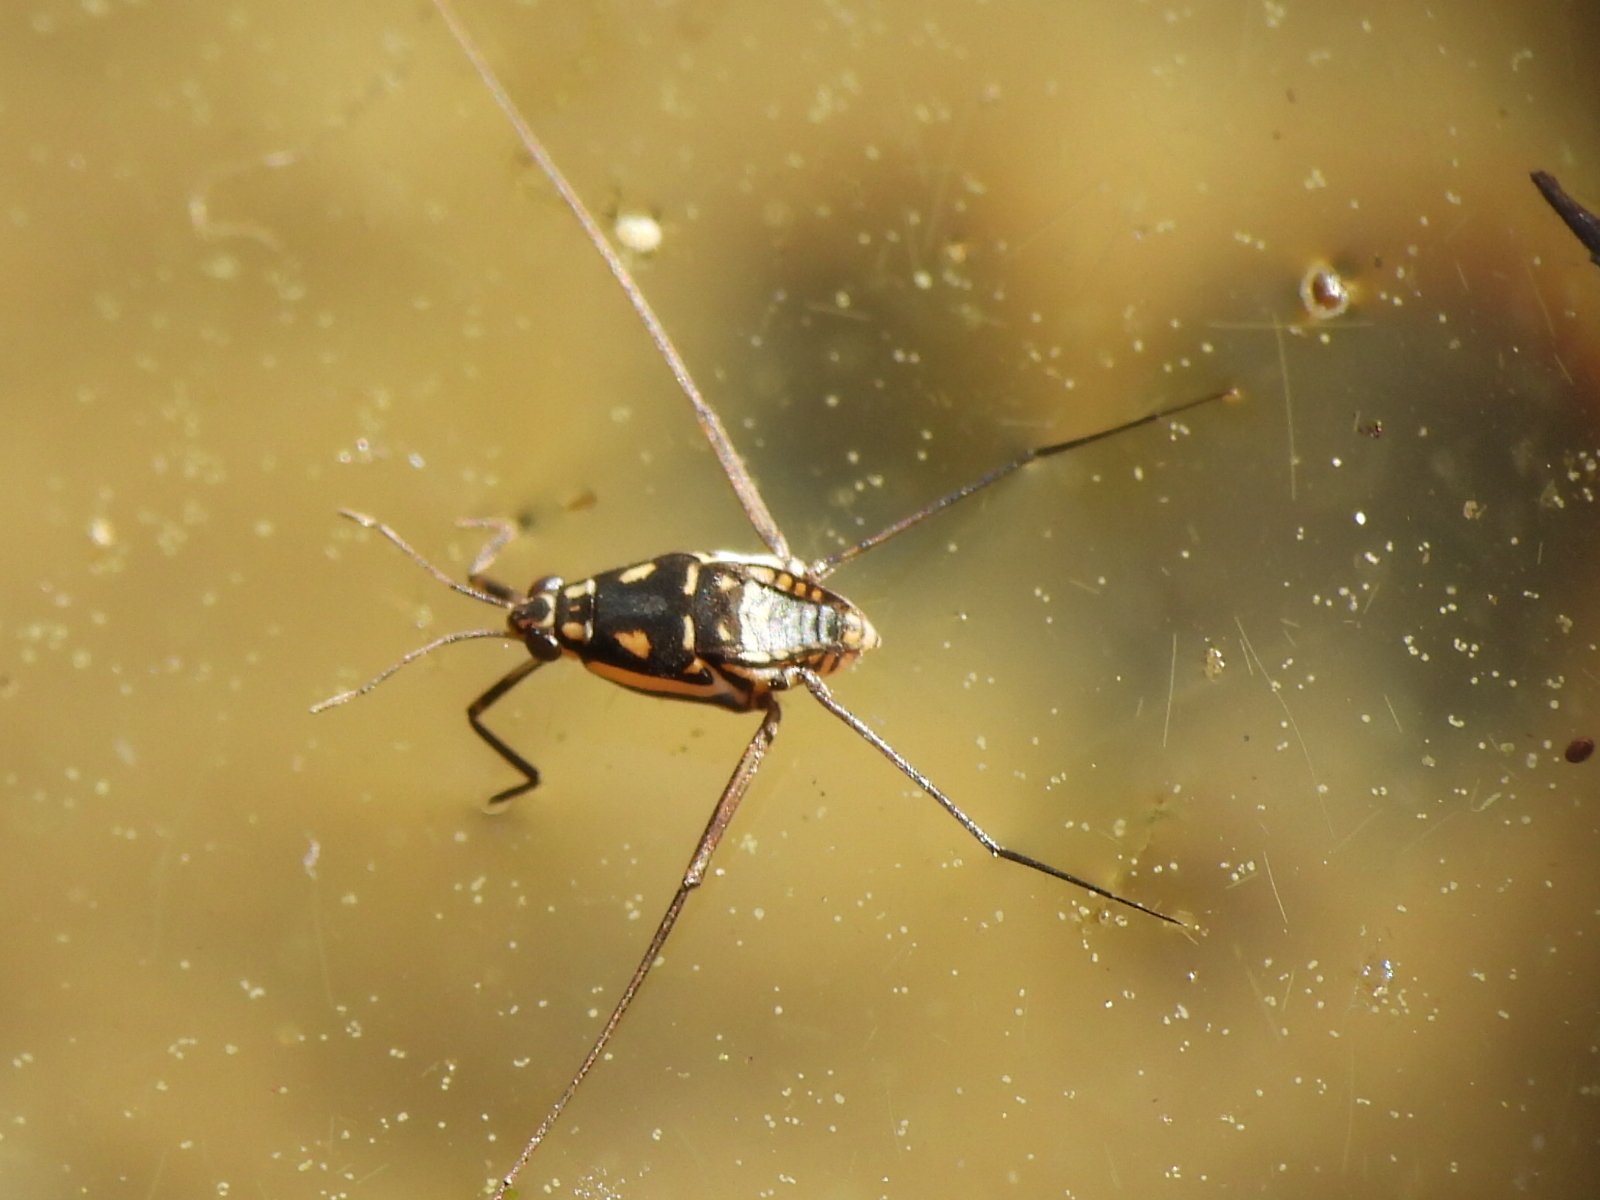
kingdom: Animalia
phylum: Arthropoda
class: Insecta
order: Hemiptera
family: Gerridae
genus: Trepobates
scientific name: Trepobates subnitidus
